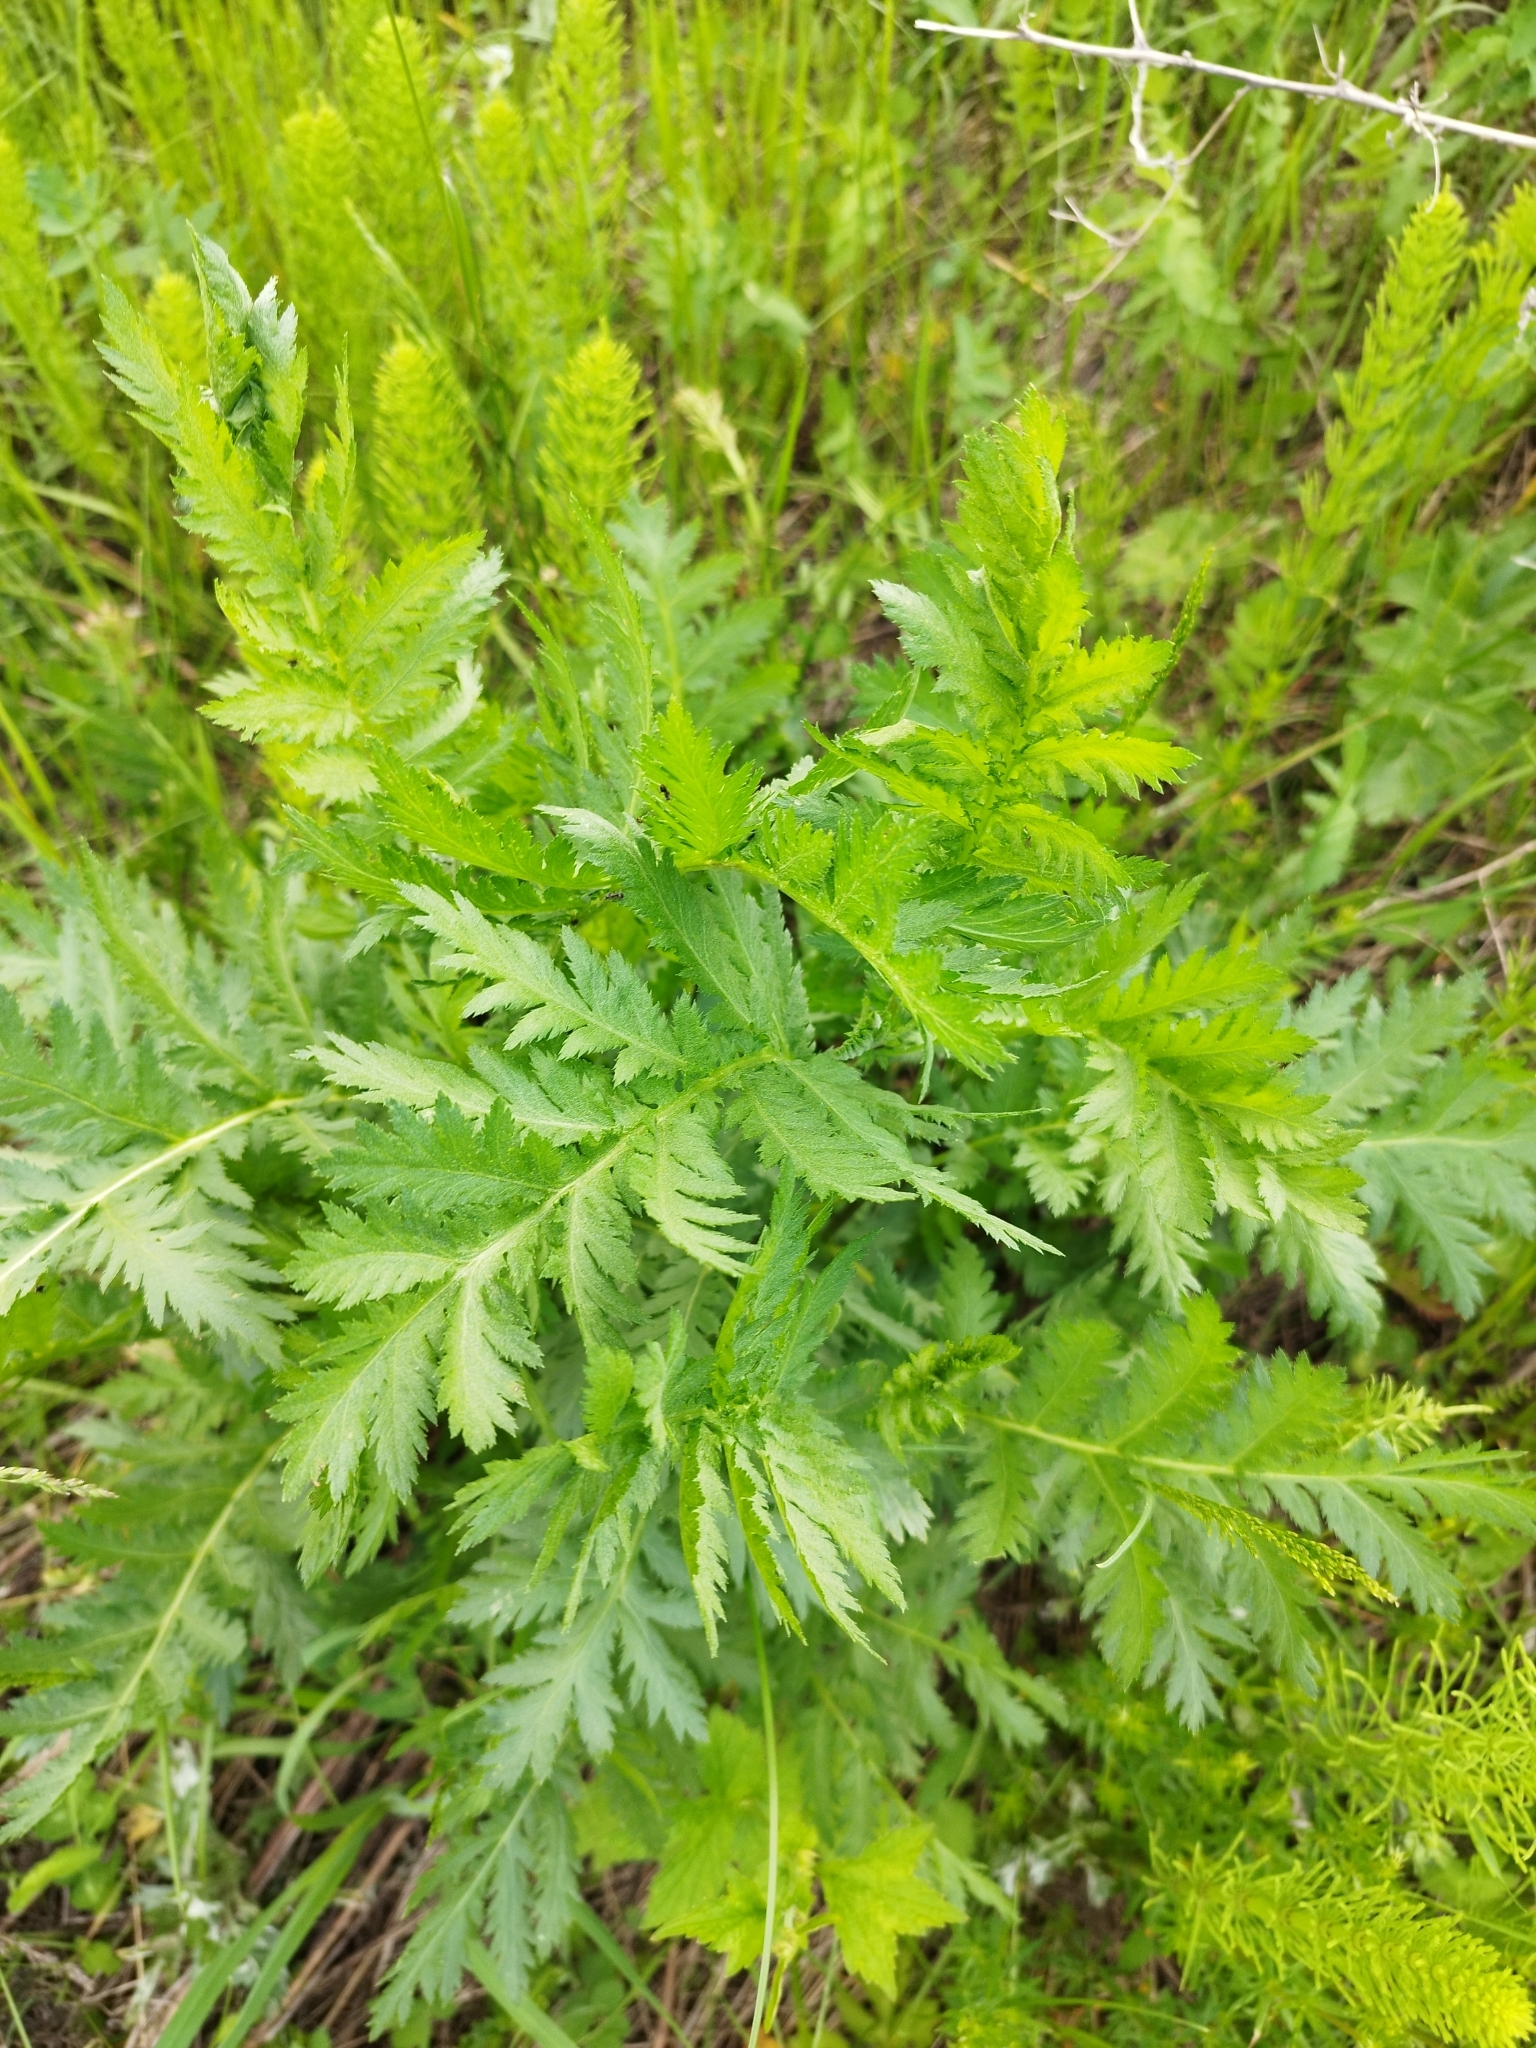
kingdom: Plantae
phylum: Tracheophyta
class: Magnoliopsida
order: Asterales
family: Asteraceae
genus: Tanacetum
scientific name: Tanacetum vulgare
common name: Common tansy
